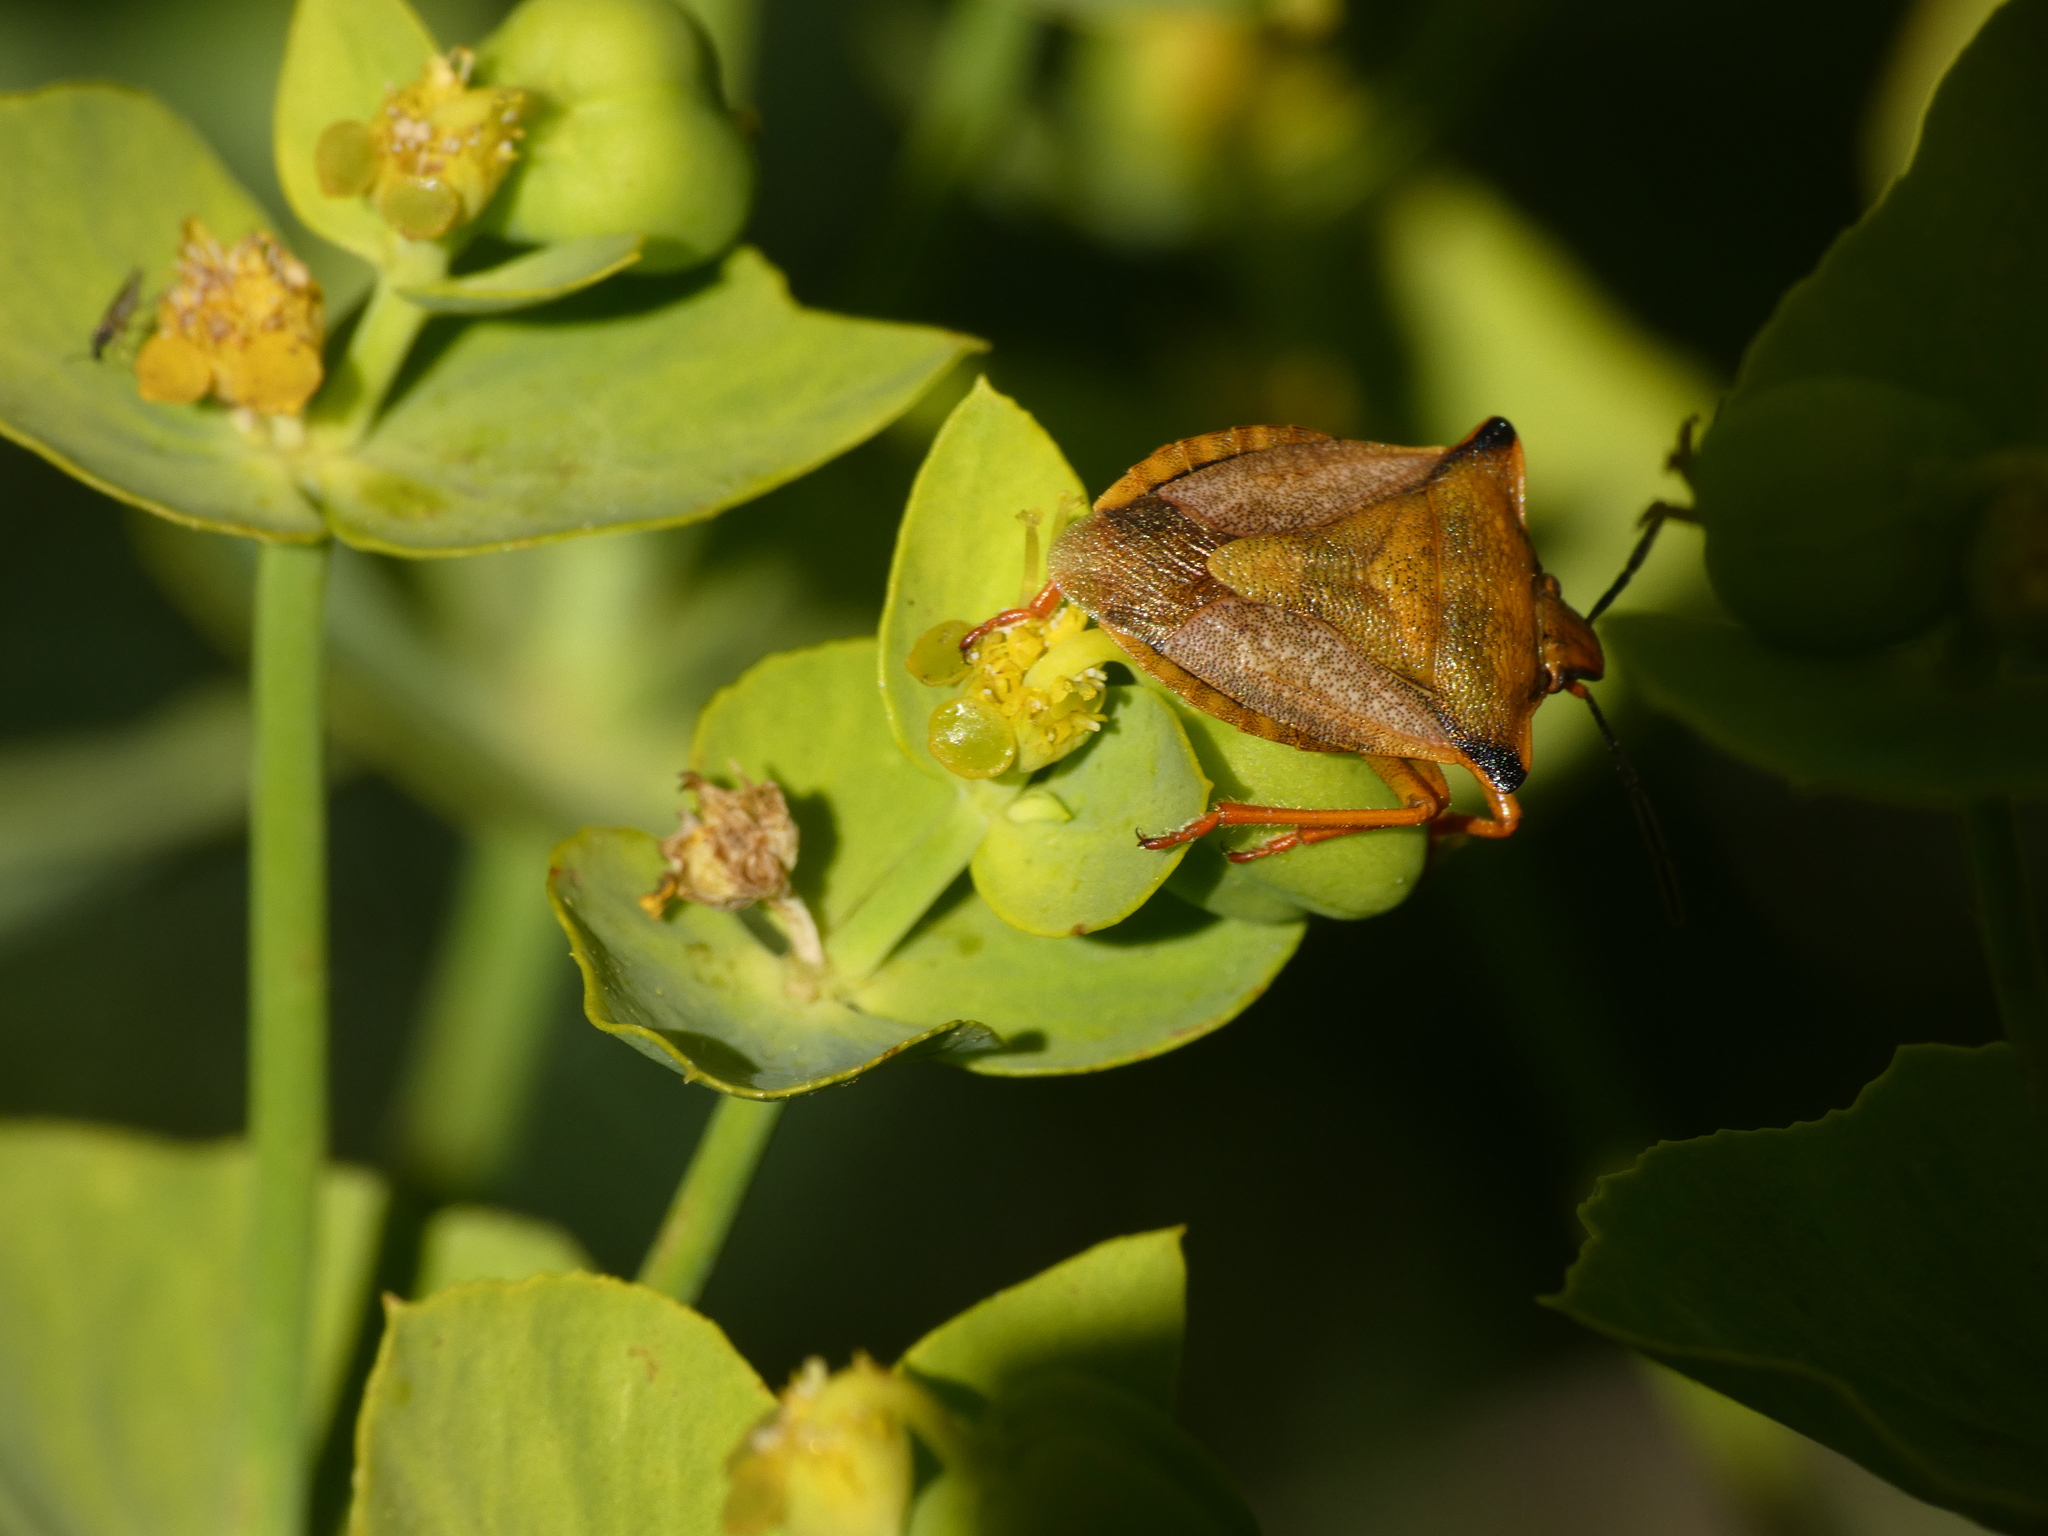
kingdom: Animalia
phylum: Arthropoda
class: Insecta
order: Hemiptera
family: Pentatomidae
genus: Carpocoris
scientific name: Carpocoris mediterraneus
